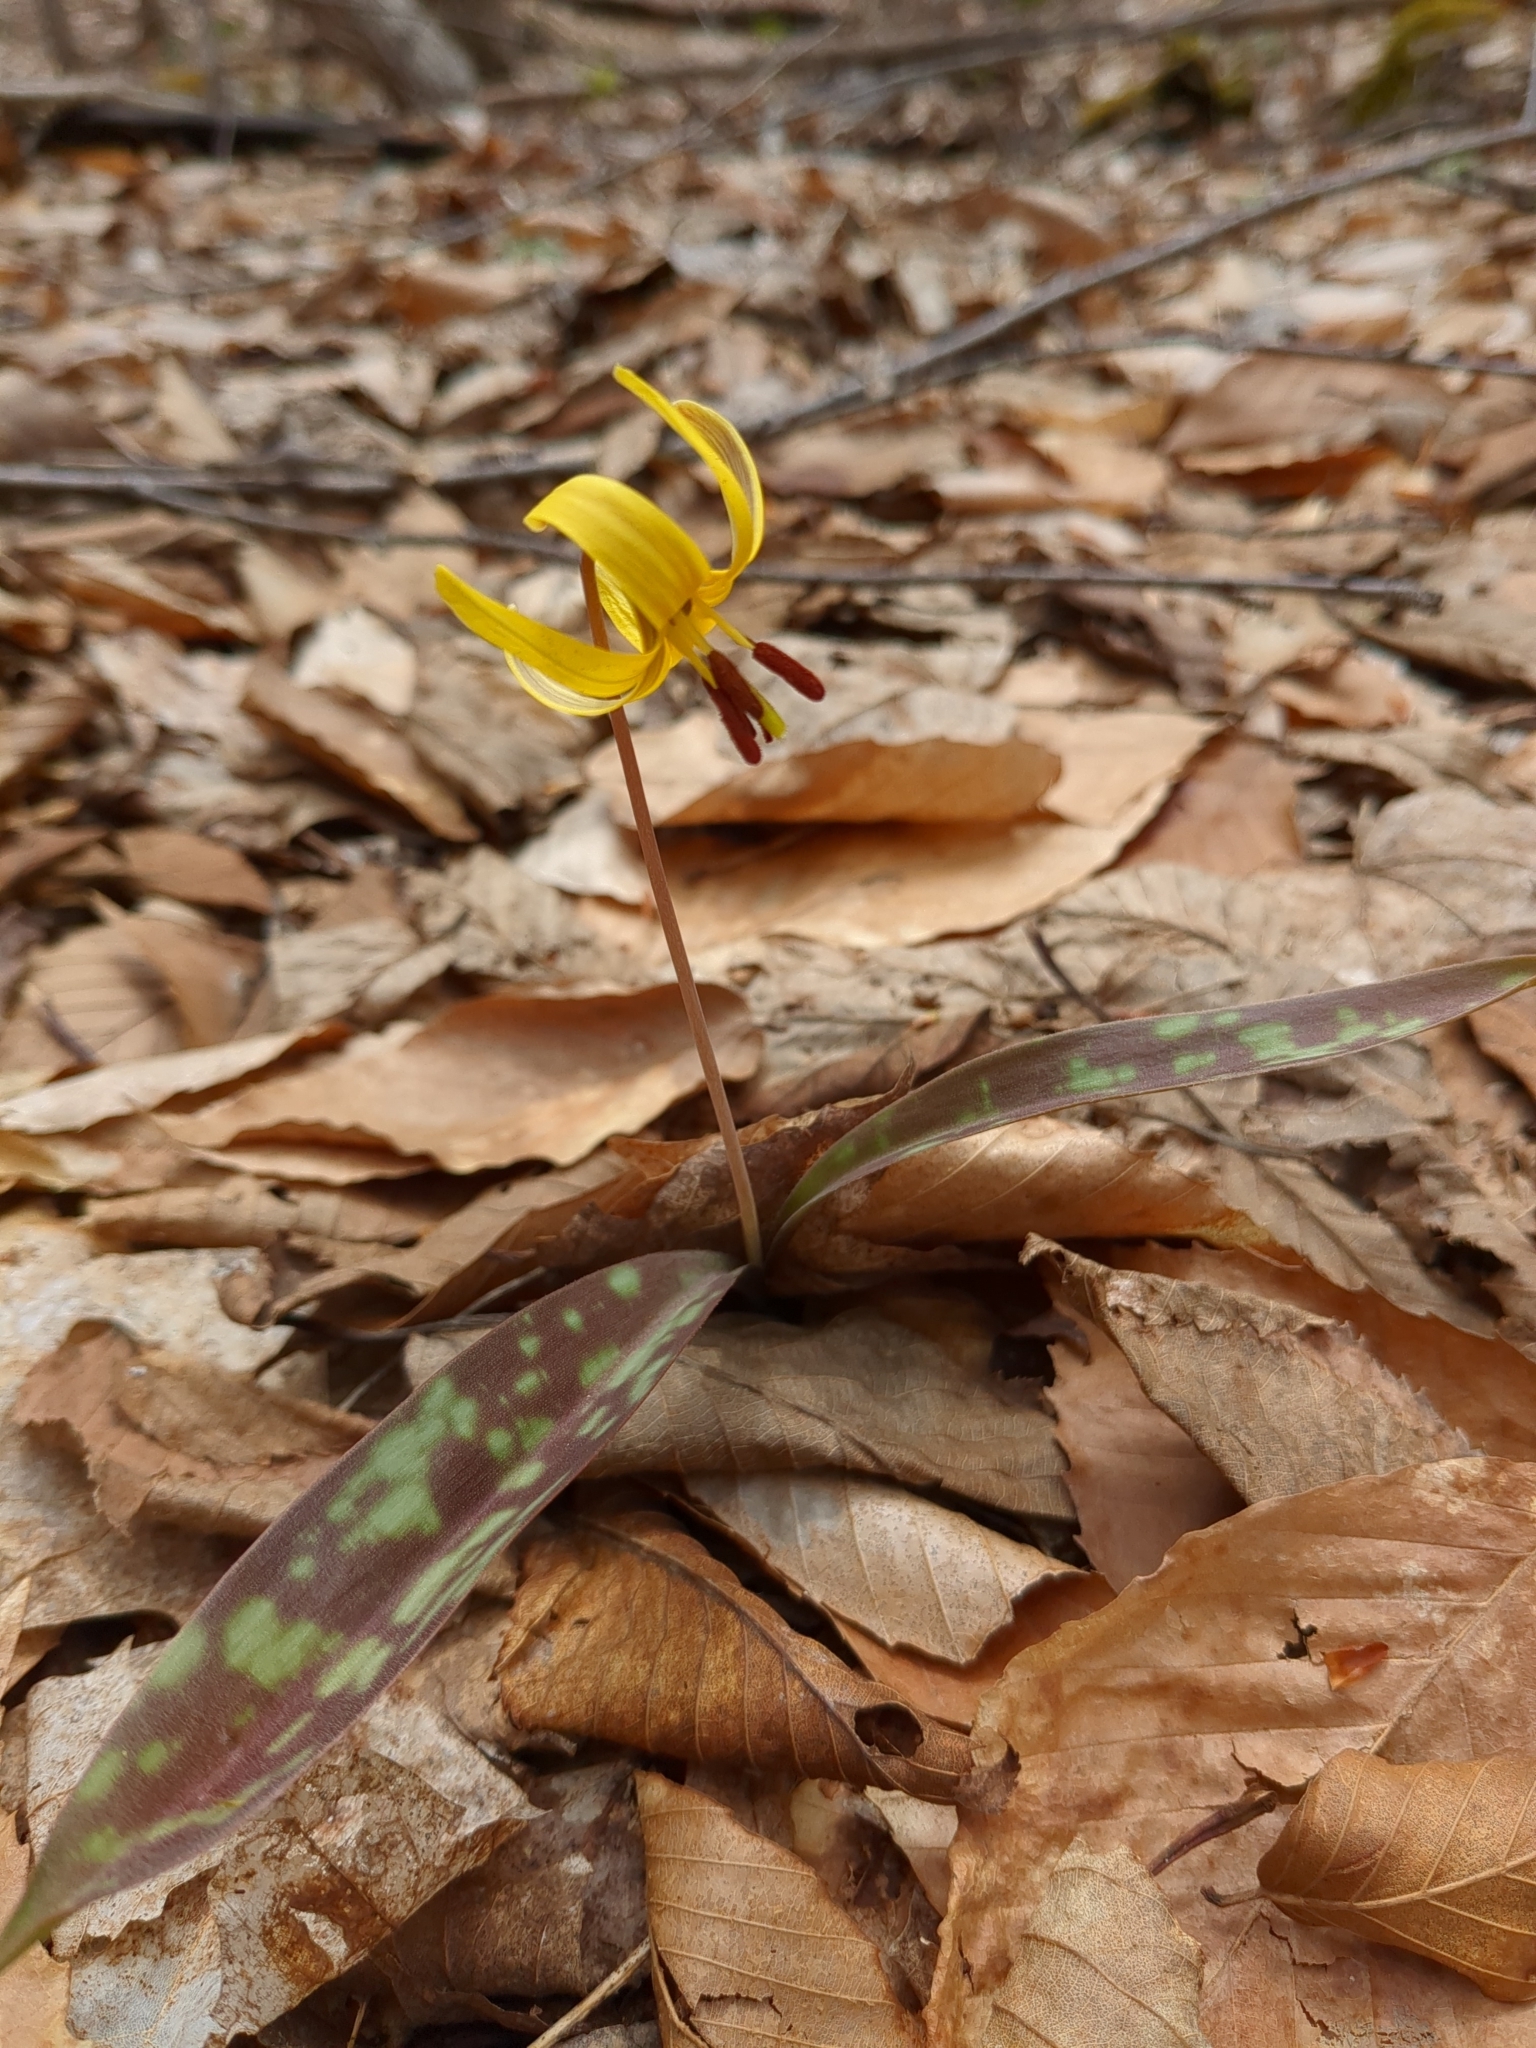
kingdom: Plantae
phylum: Tracheophyta
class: Liliopsida
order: Liliales
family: Liliaceae
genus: Erythronium
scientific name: Erythronium americanum
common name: Yellow adder's-tongue
